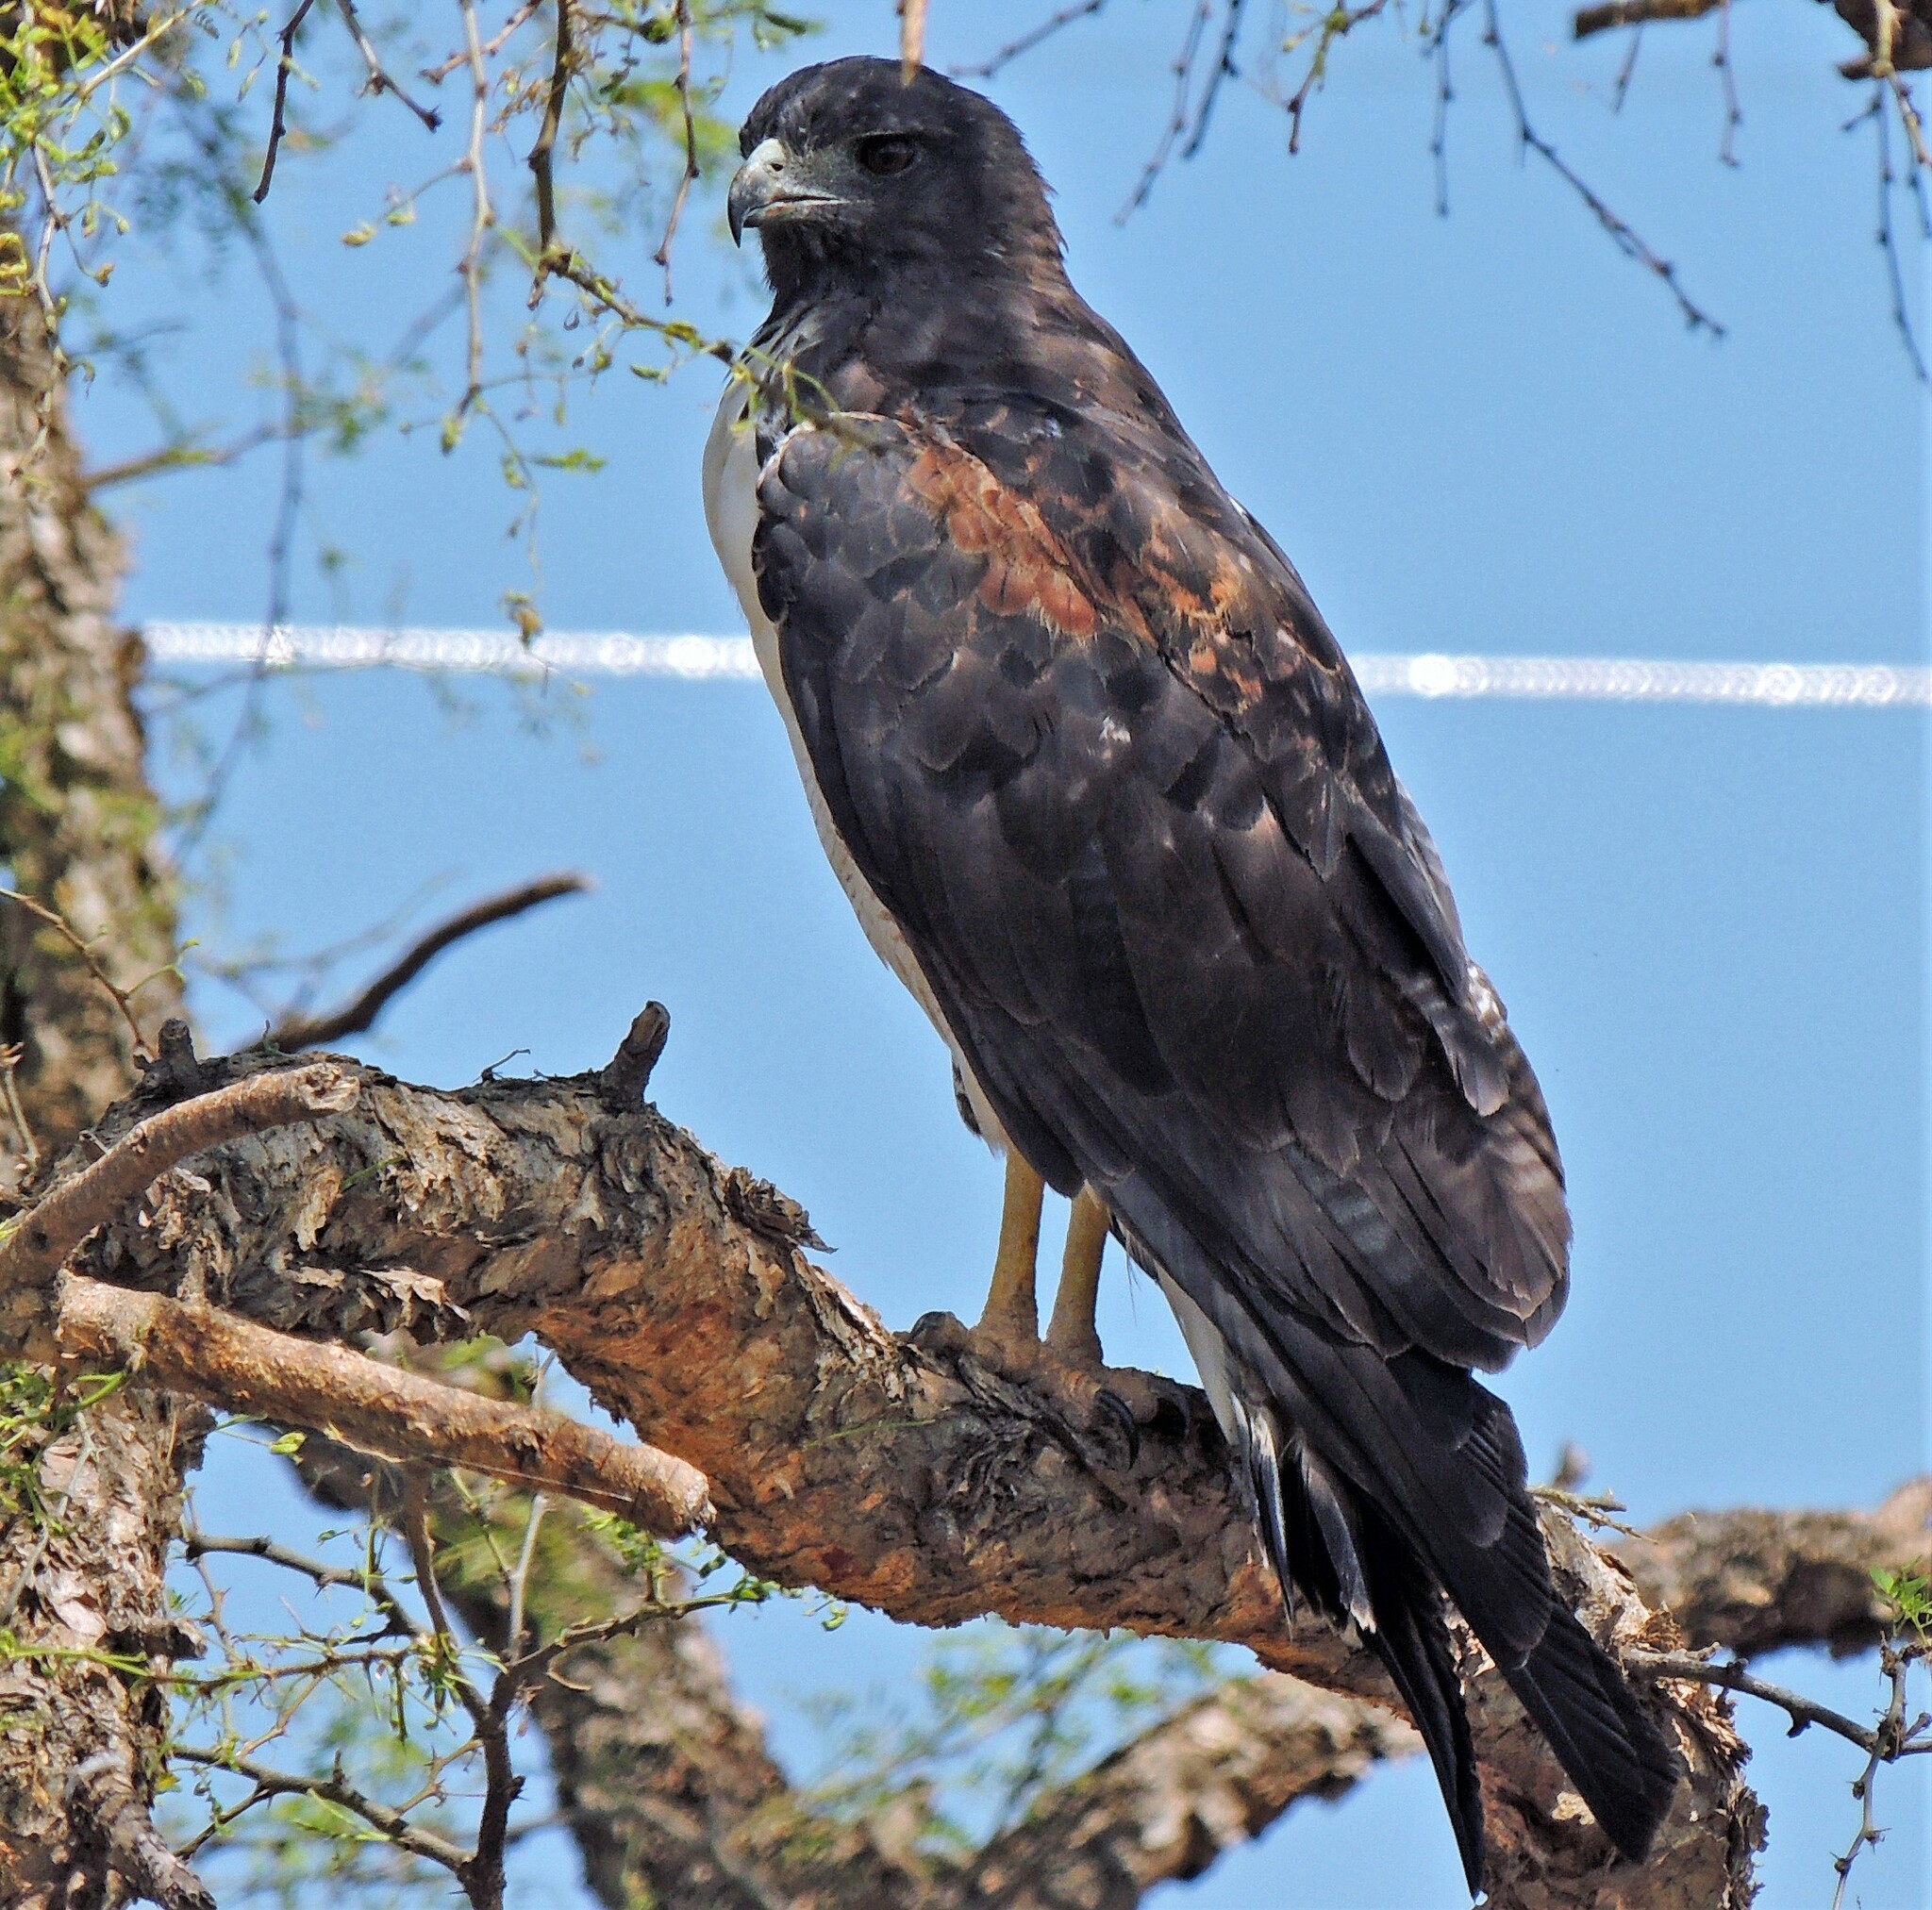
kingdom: Animalia
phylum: Chordata
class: Aves
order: Accipitriformes
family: Accipitridae
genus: Buteo
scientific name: Buteo albicaudatus
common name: White-tailed hawk
